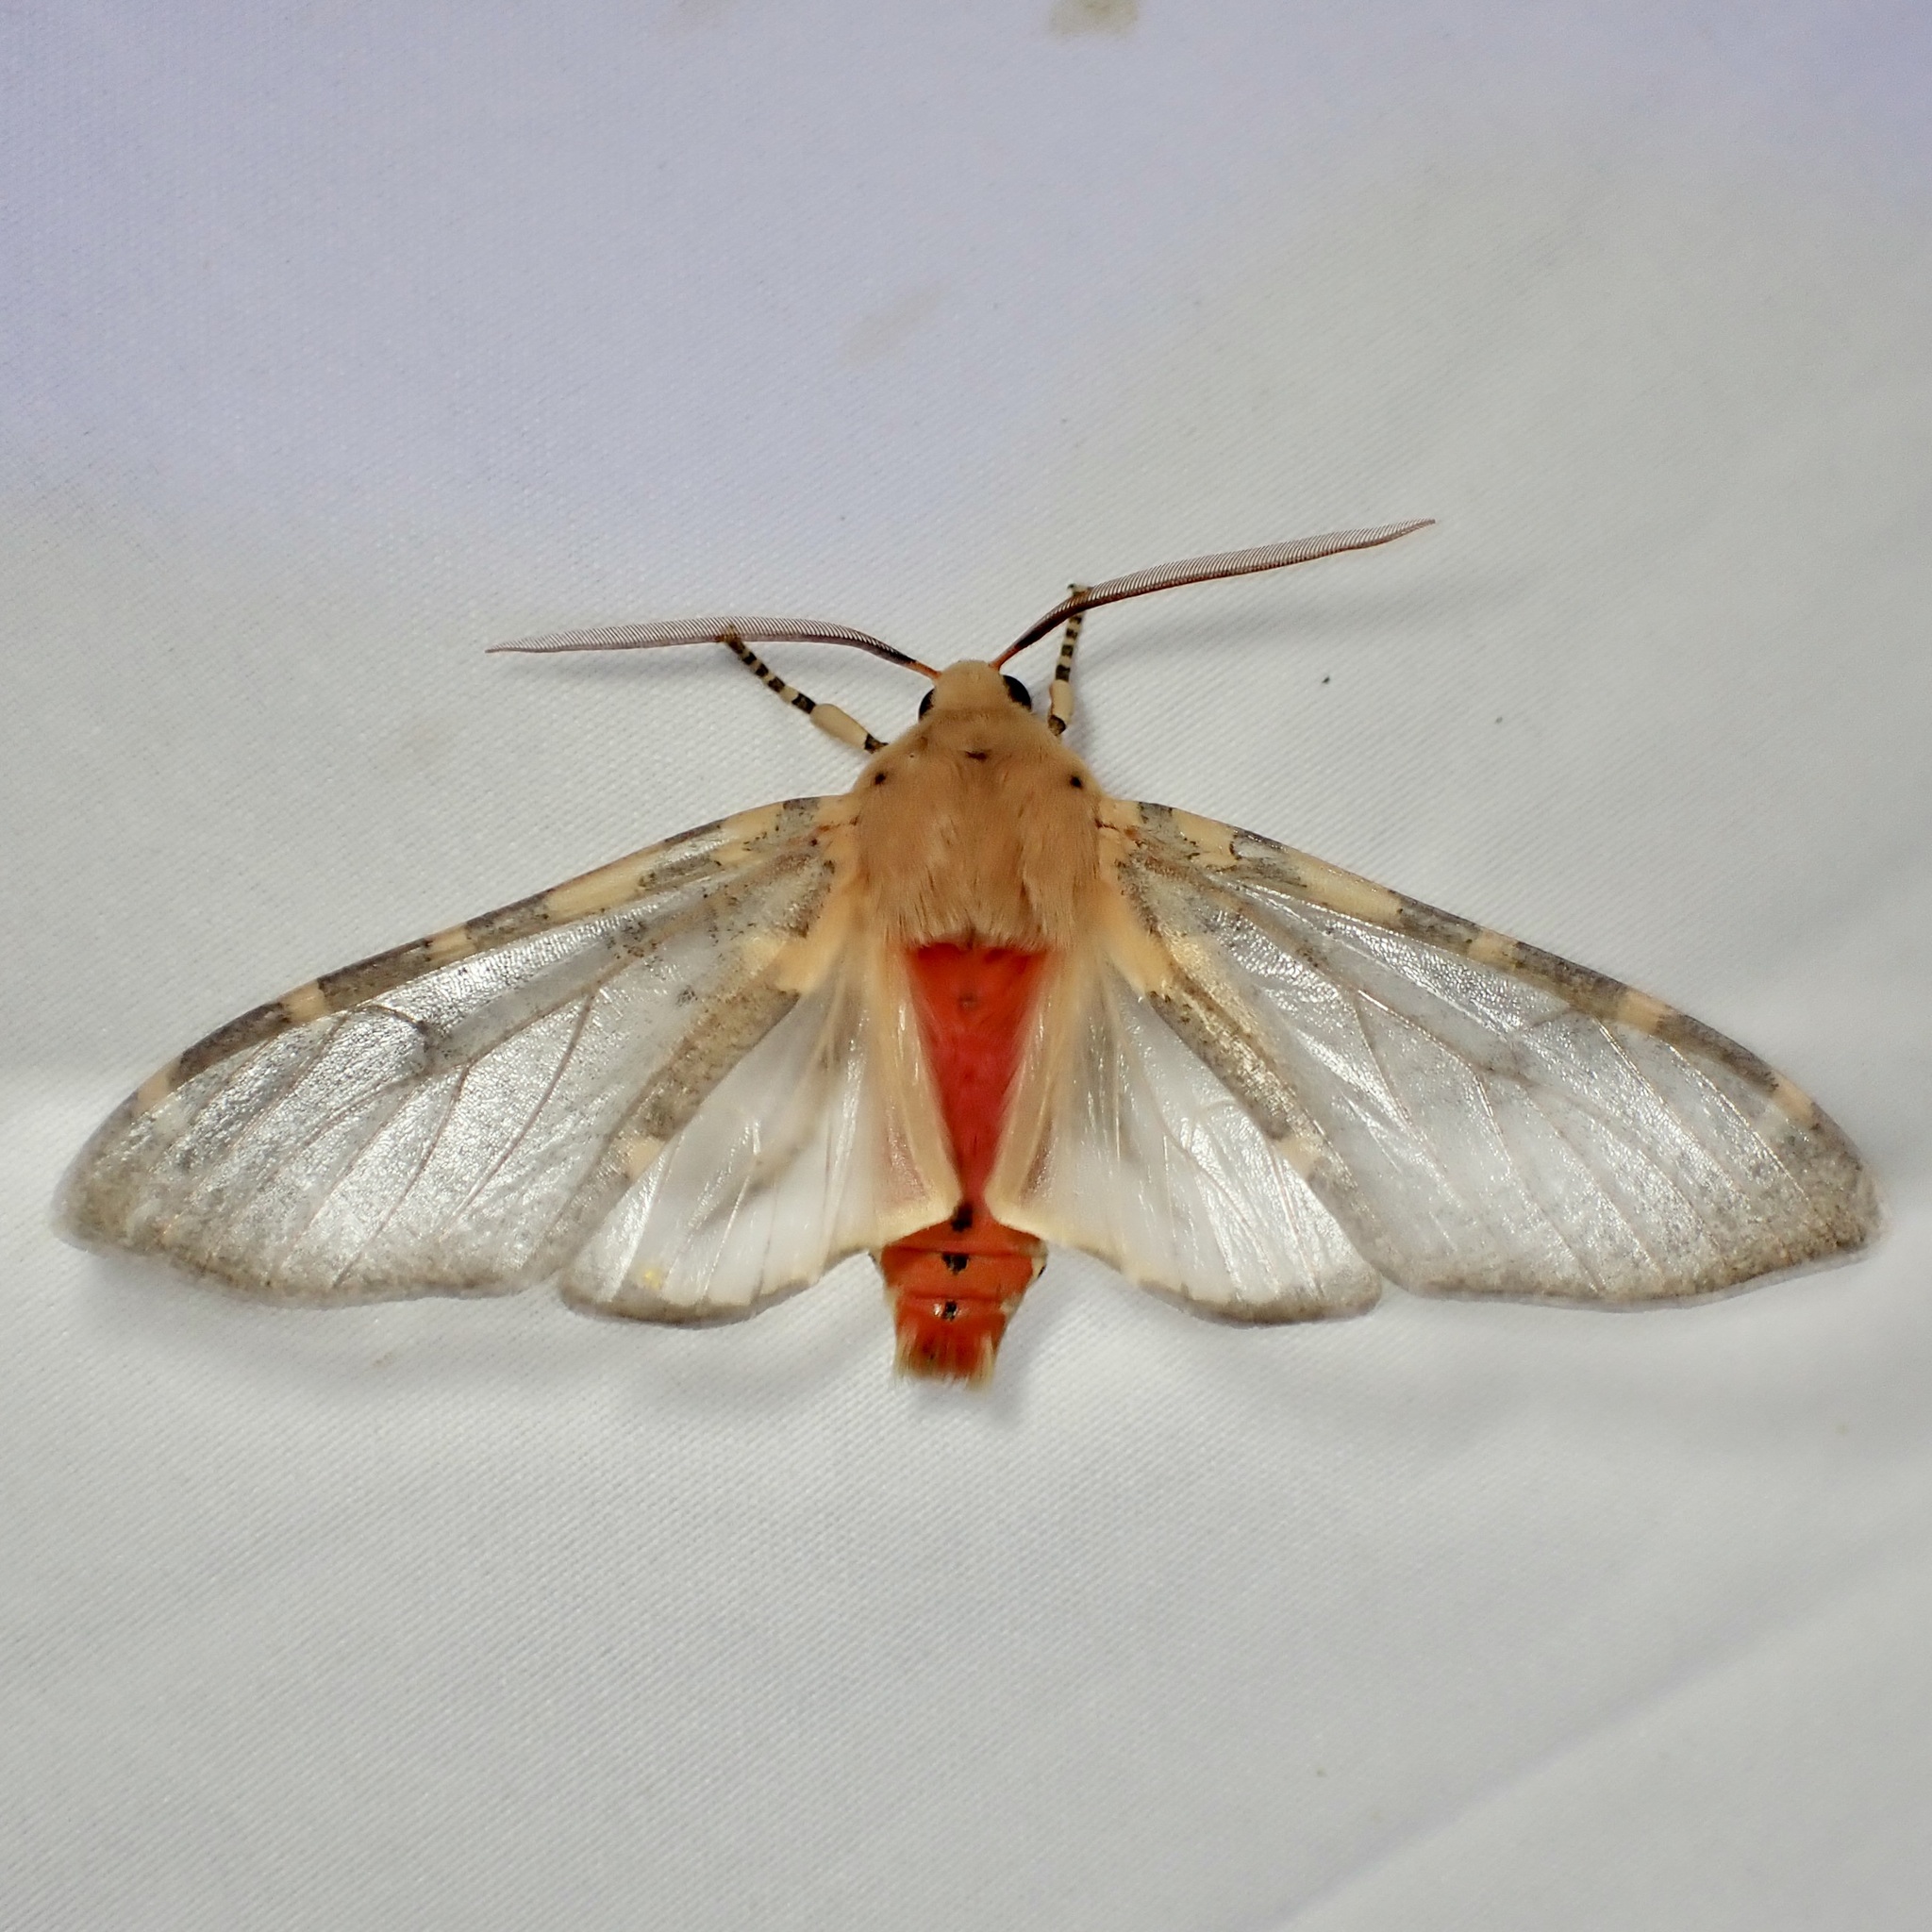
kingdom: Animalia
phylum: Arthropoda
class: Insecta
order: Lepidoptera
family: Erebidae
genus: Hemihyalea
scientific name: Hemihyalea edwardsii
